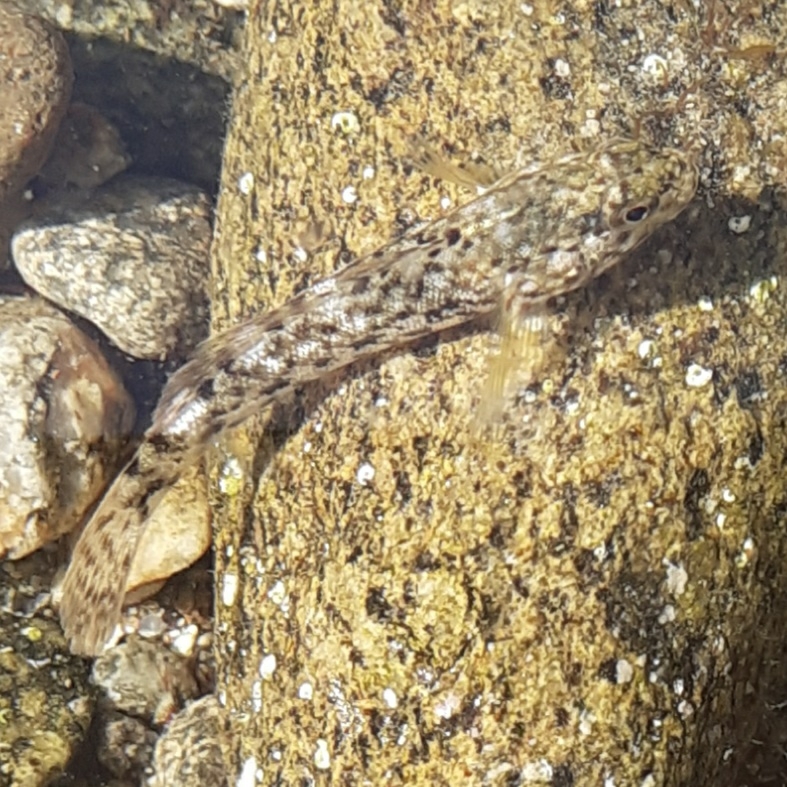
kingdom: Animalia
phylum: Chordata
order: Perciformes
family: Gobiidae
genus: Gobius
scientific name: Gobius cobitis
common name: Giant goby
